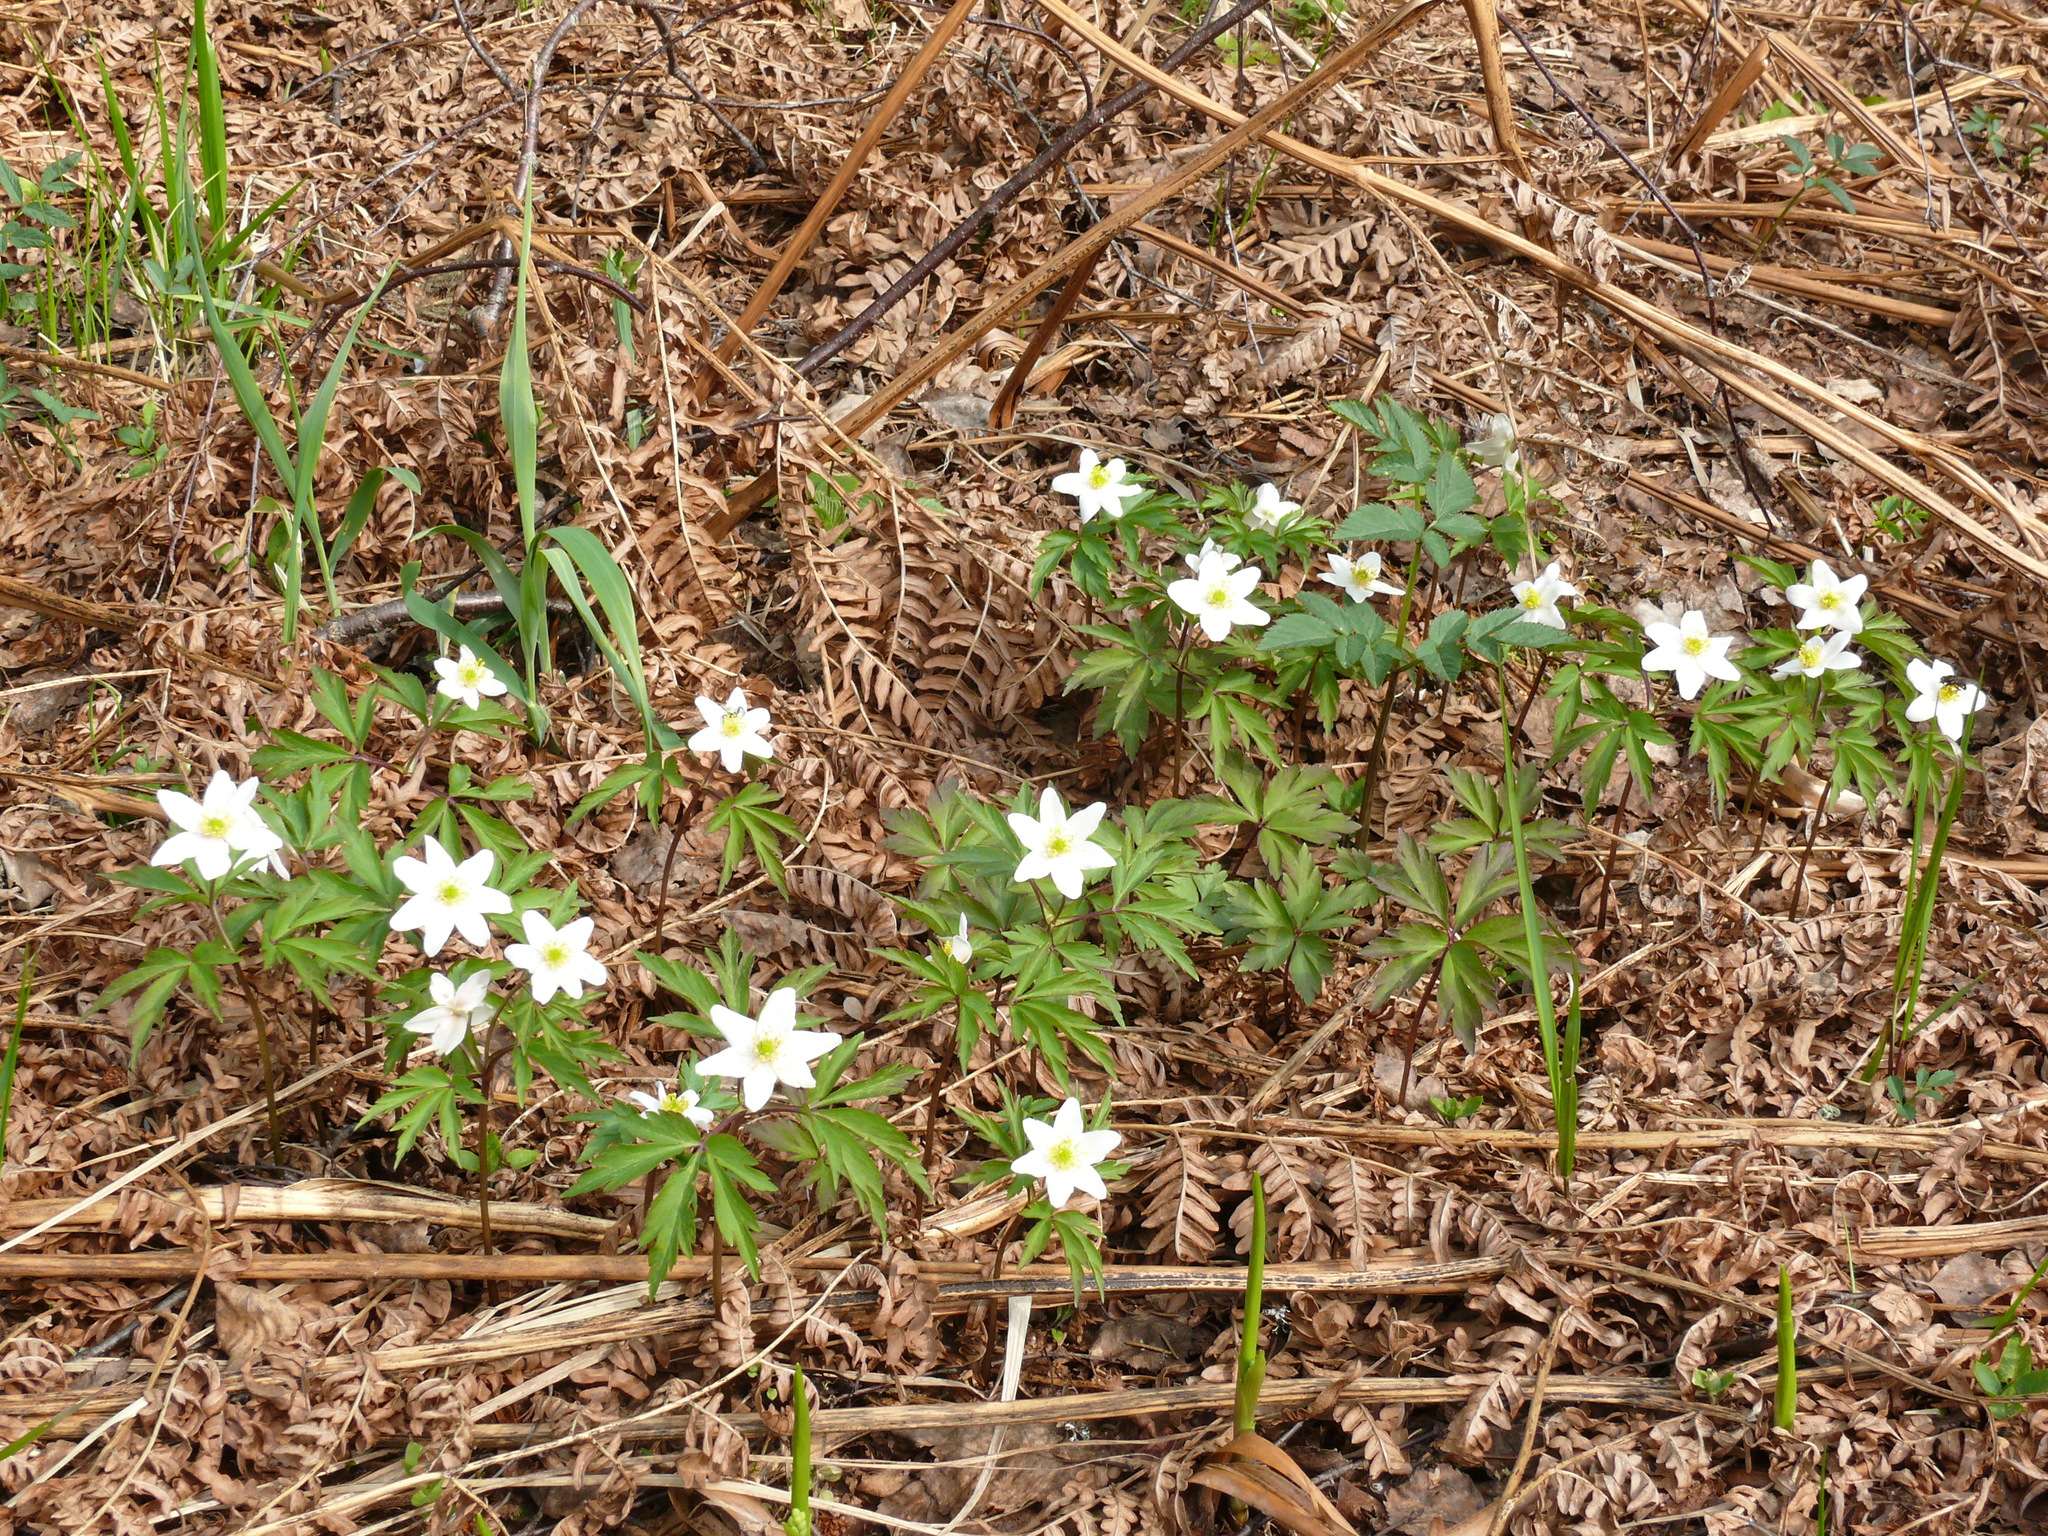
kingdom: Plantae
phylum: Tracheophyta
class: Magnoliopsida
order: Ranunculales
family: Ranunculaceae
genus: Anemone
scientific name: Anemone nemorosa
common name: Wood anemone
